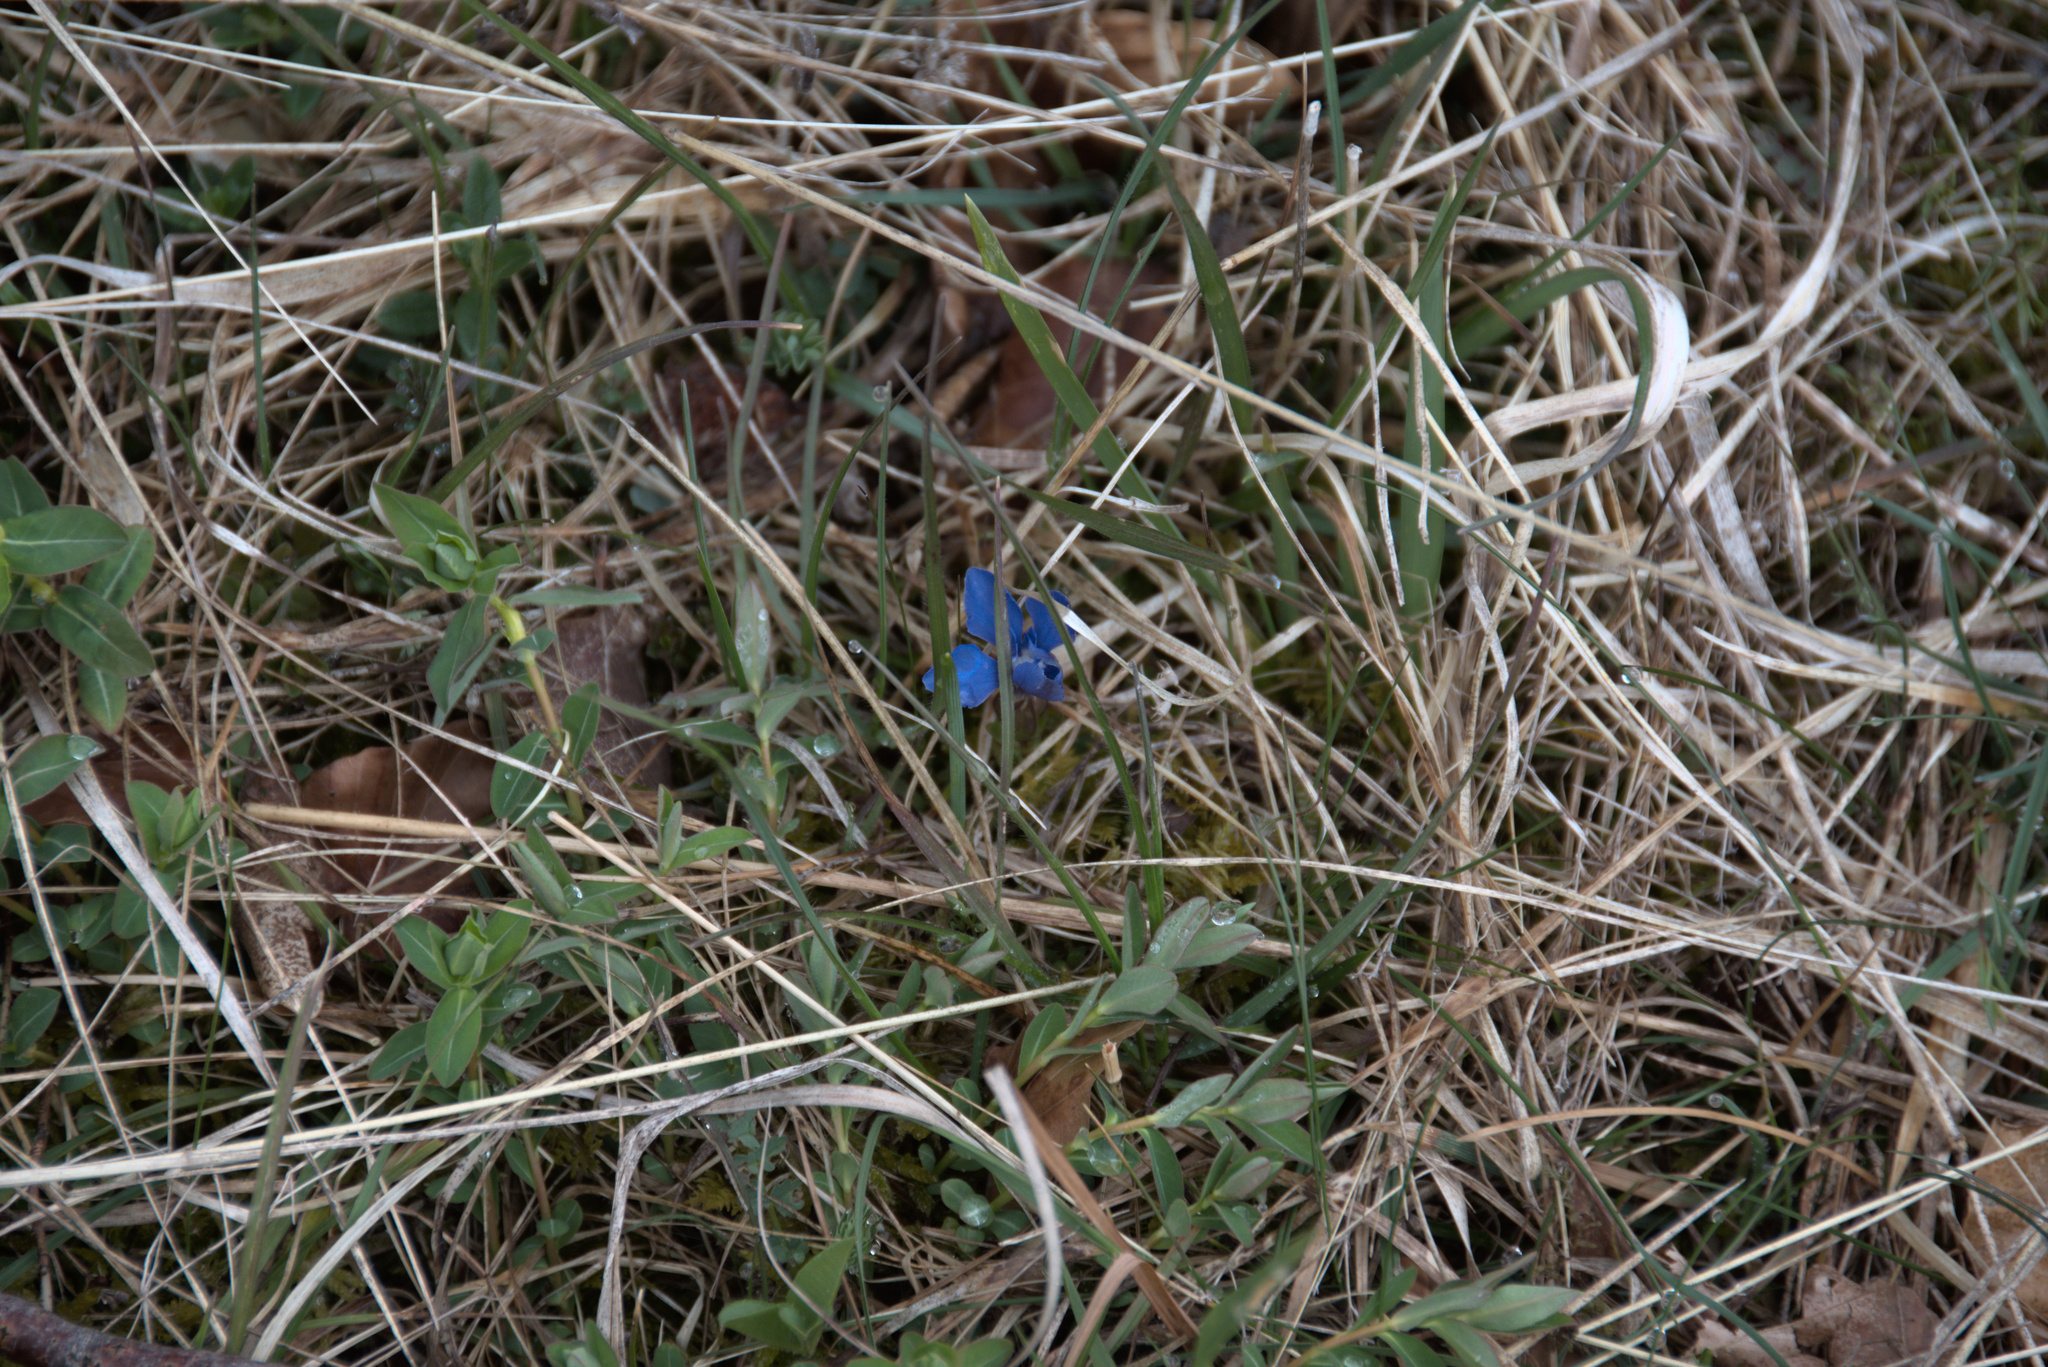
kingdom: Plantae
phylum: Tracheophyta
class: Magnoliopsida
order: Gentianales
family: Gentianaceae
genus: Gentiana
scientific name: Gentiana verna
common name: Spring gentian
